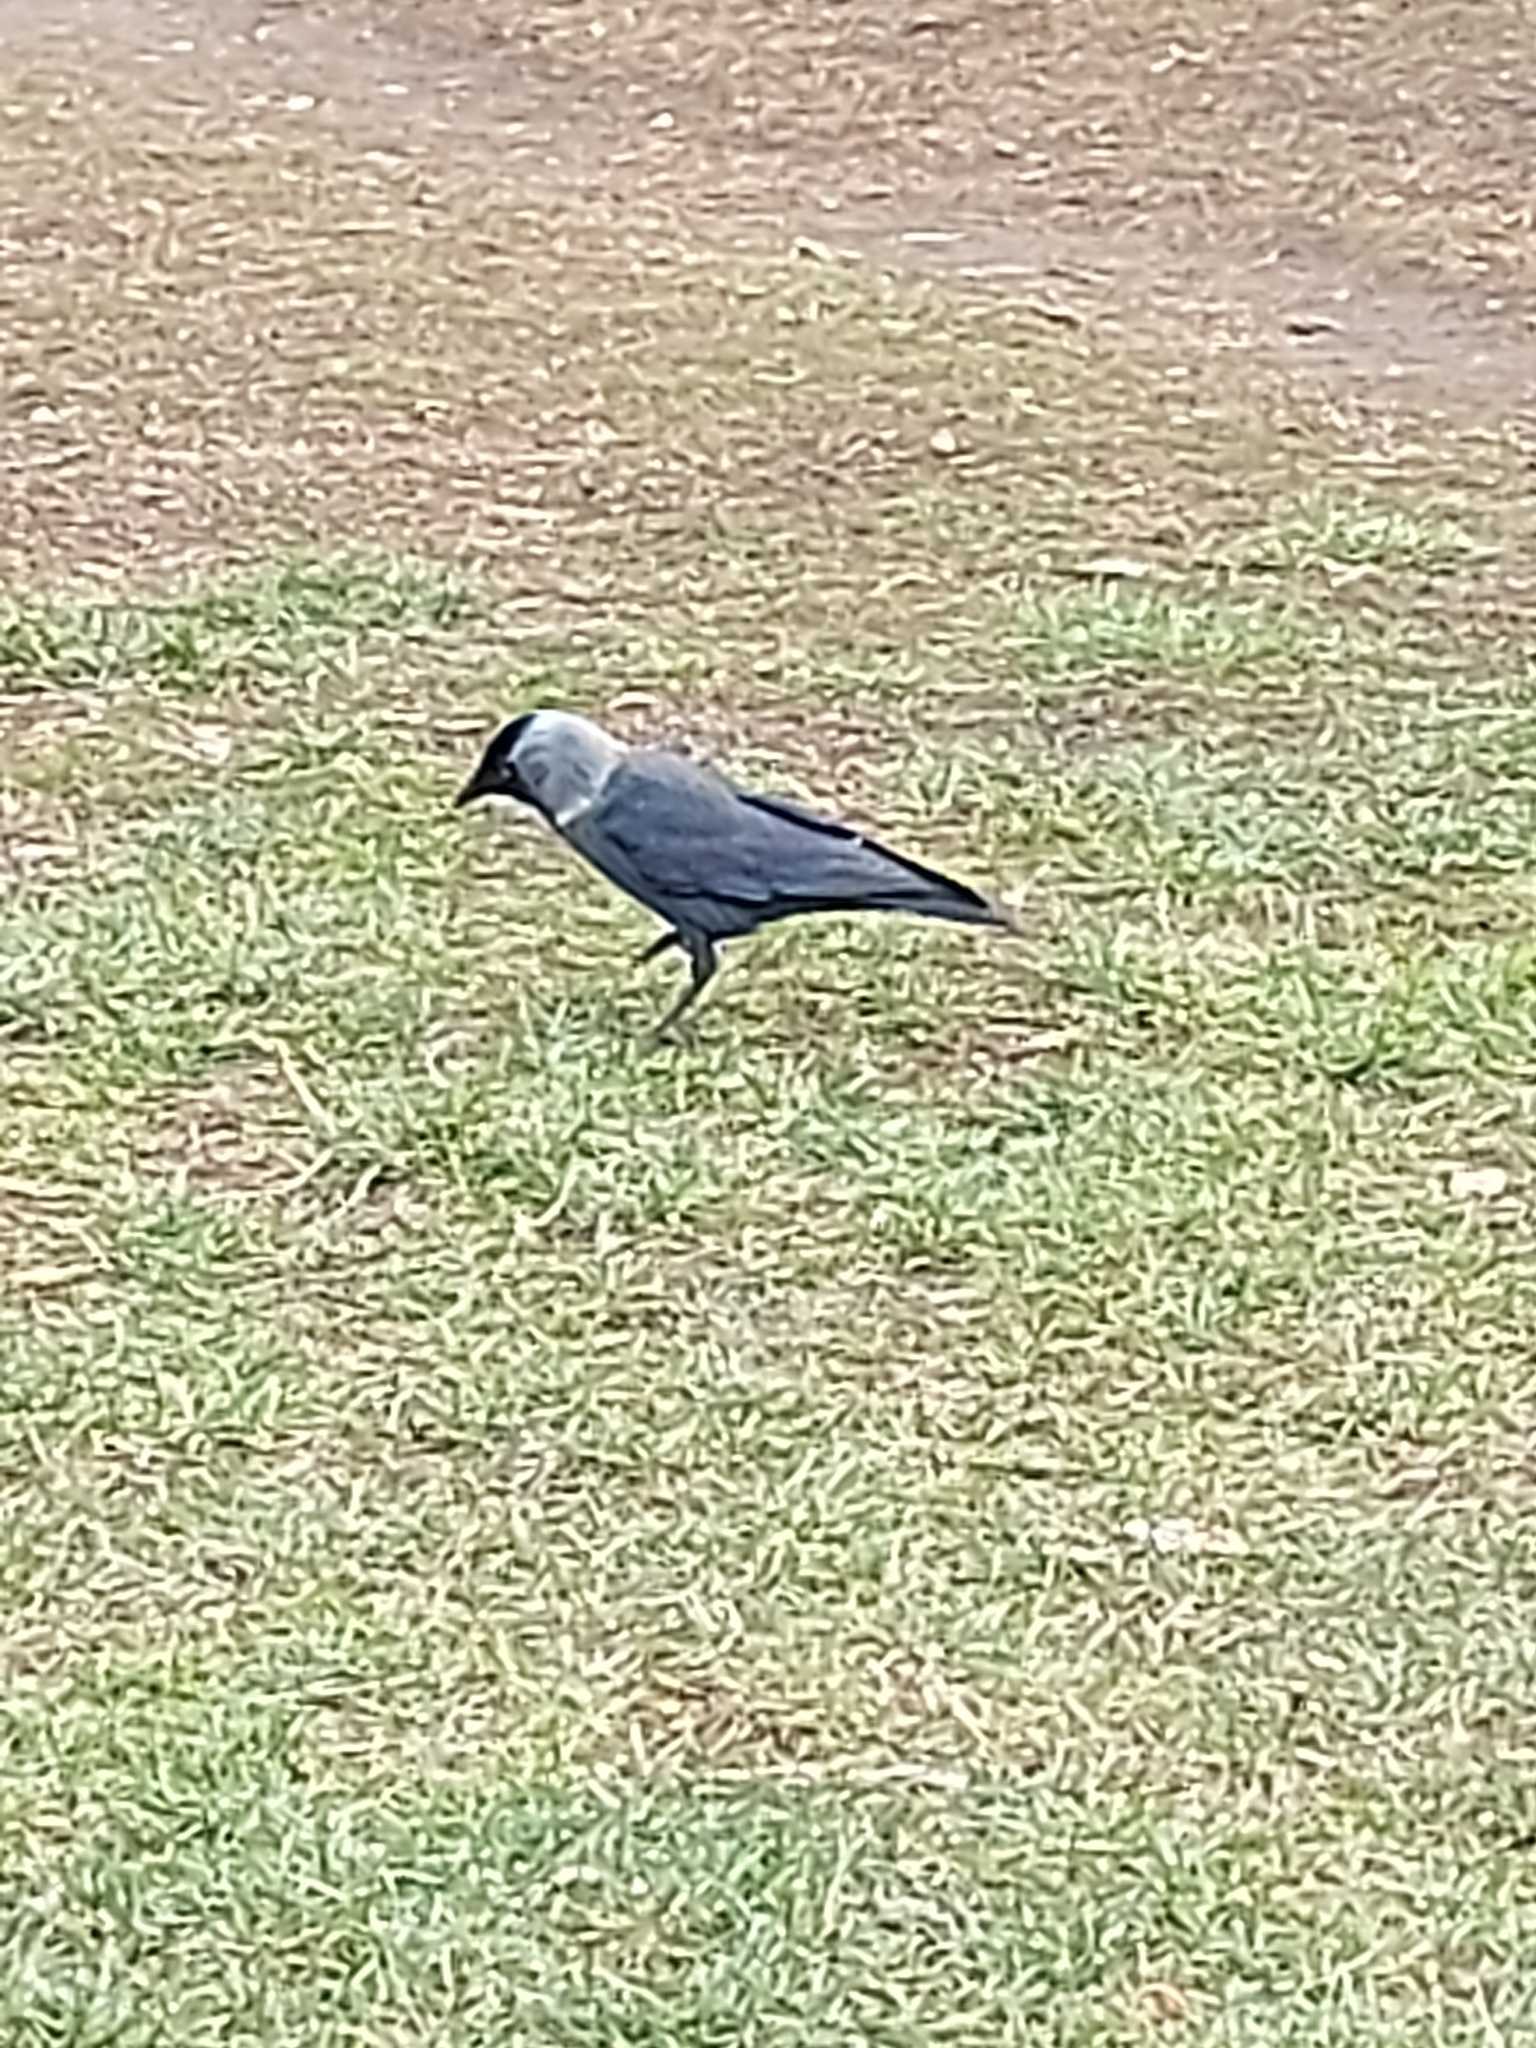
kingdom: Animalia
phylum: Chordata
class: Aves
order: Passeriformes
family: Corvidae
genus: Coloeus
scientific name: Coloeus monedula
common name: Western jackdaw
